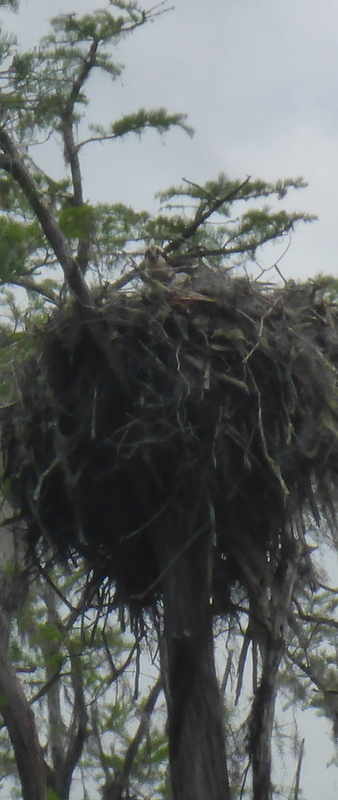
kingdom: Animalia
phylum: Chordata
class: Aves
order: Accipitriformes
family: Pandionidae
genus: Pandion
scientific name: Pandion haliaetus
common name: Osprey
